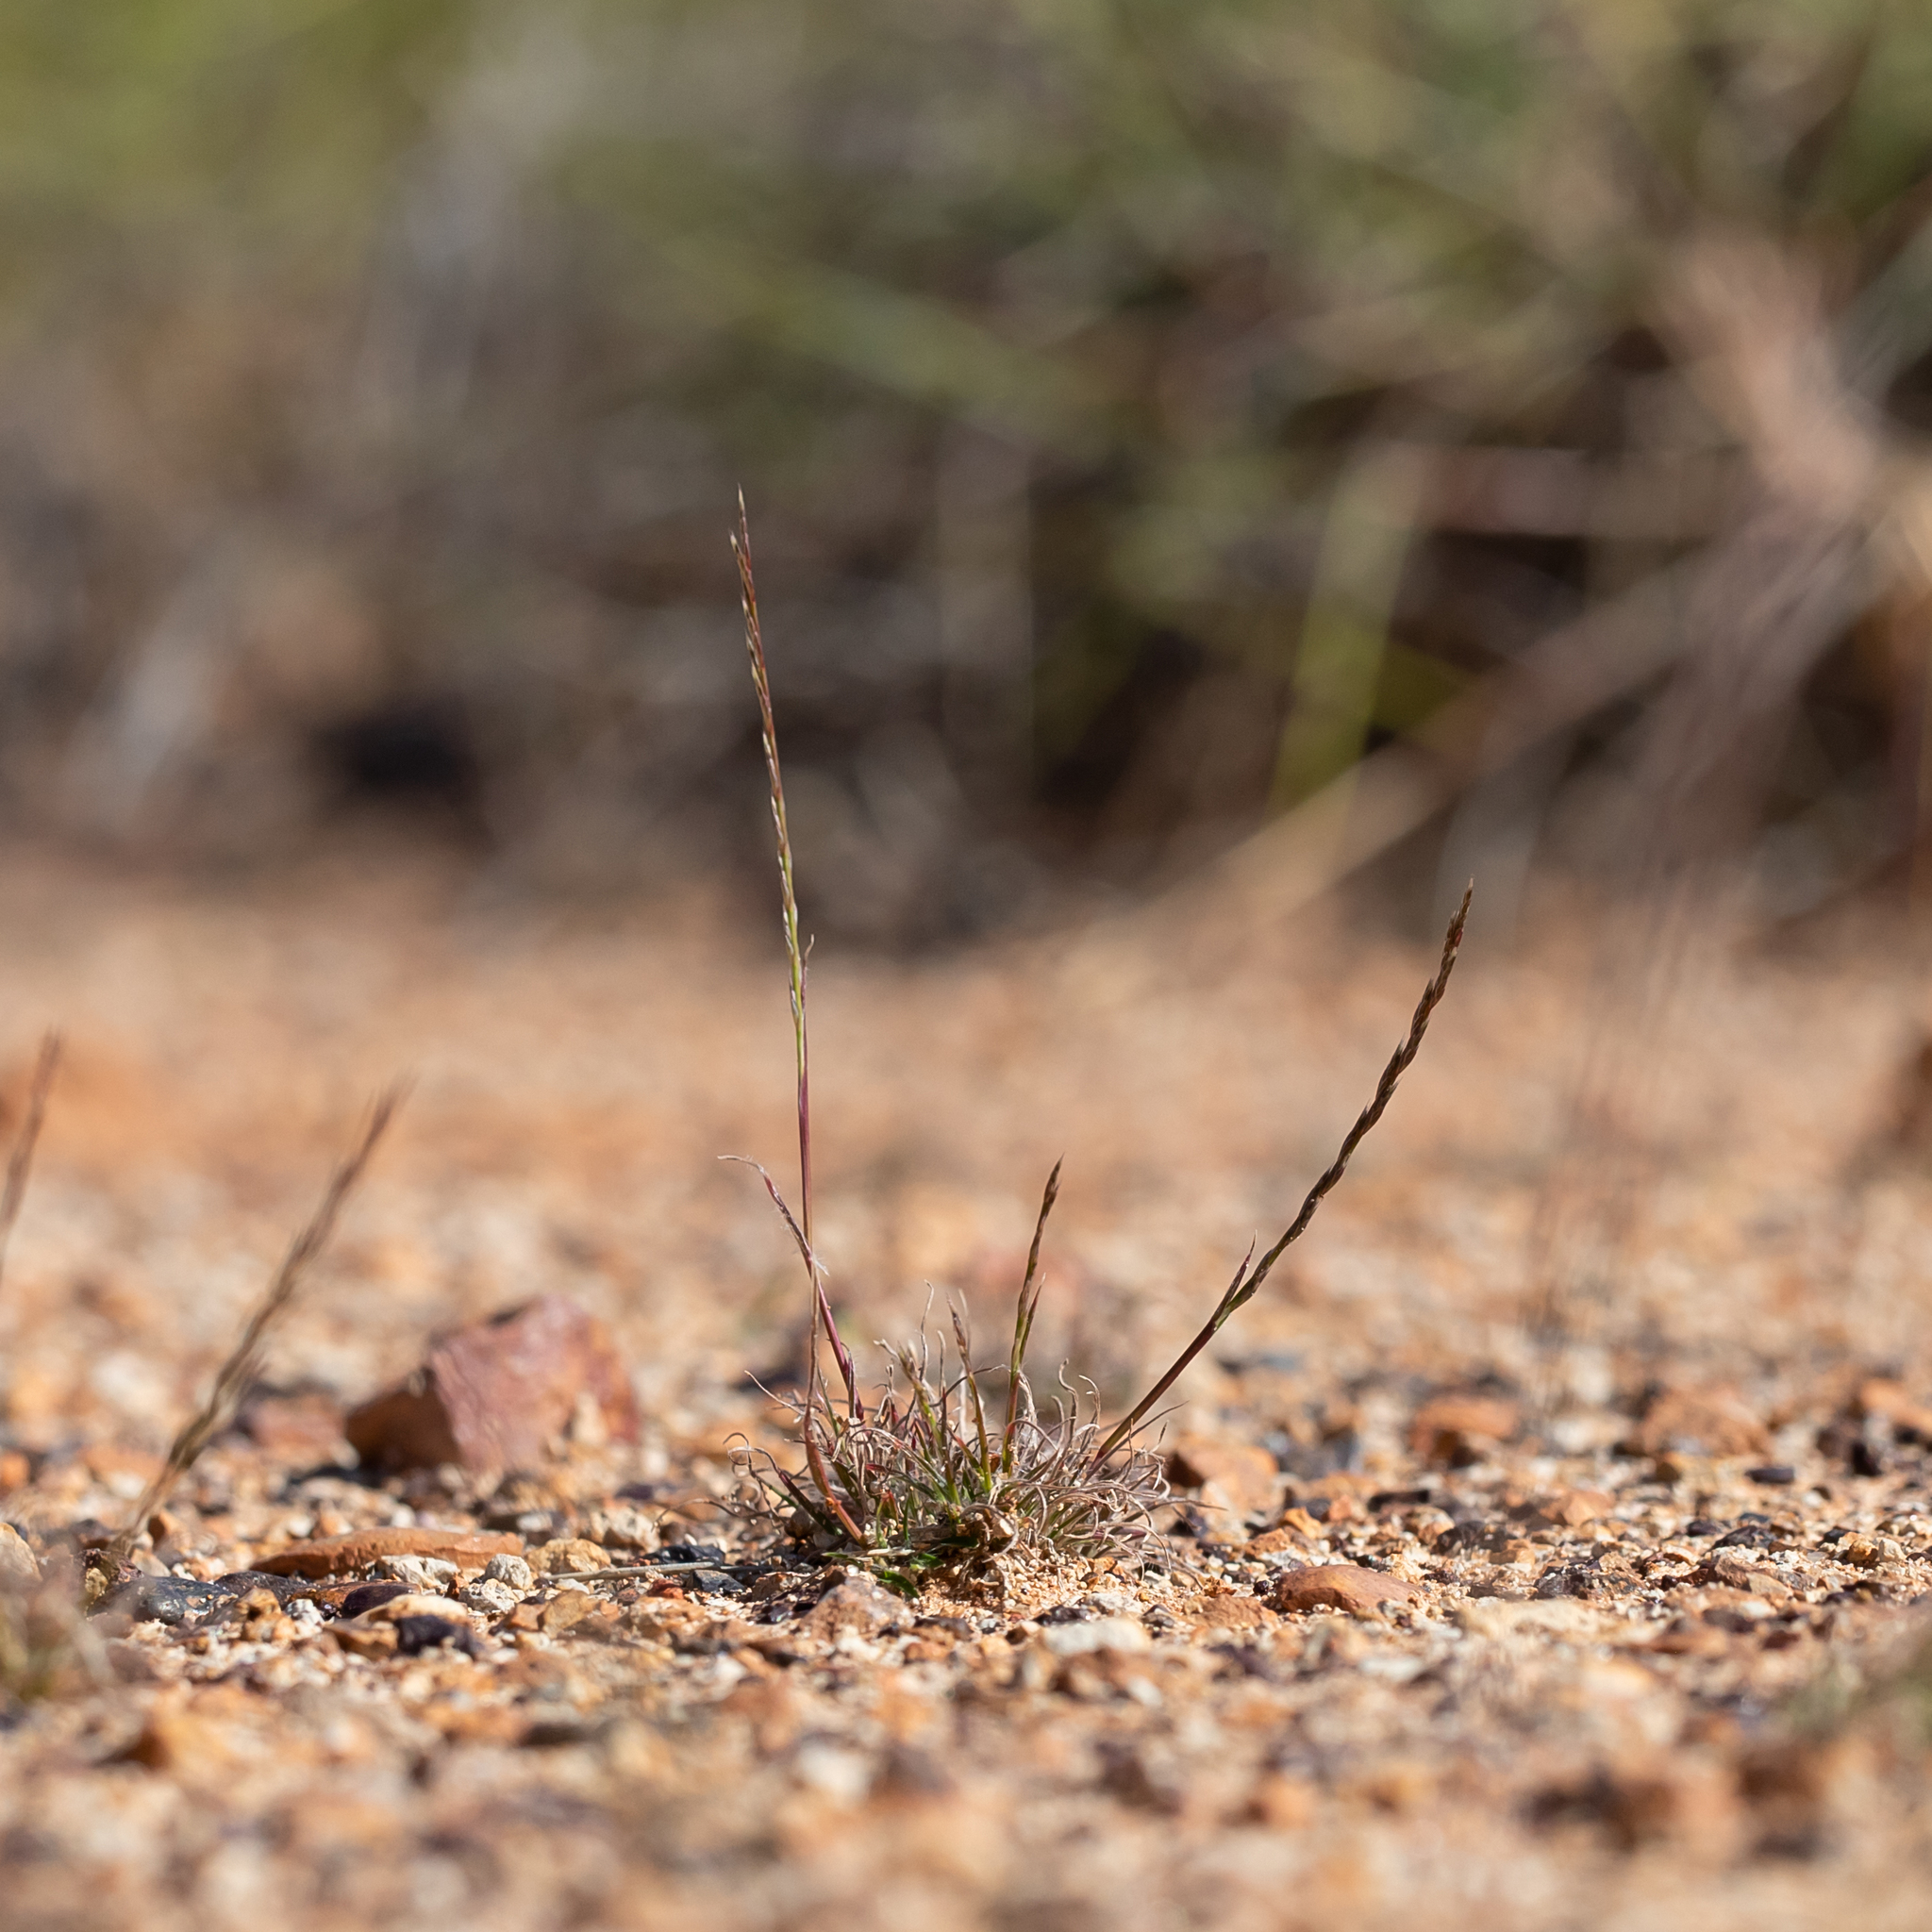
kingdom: Plantae
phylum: Tracheophyta
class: Liliopsida
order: Poales
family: Poaceae
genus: Tripogonella
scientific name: Tripogonella loliiformis
